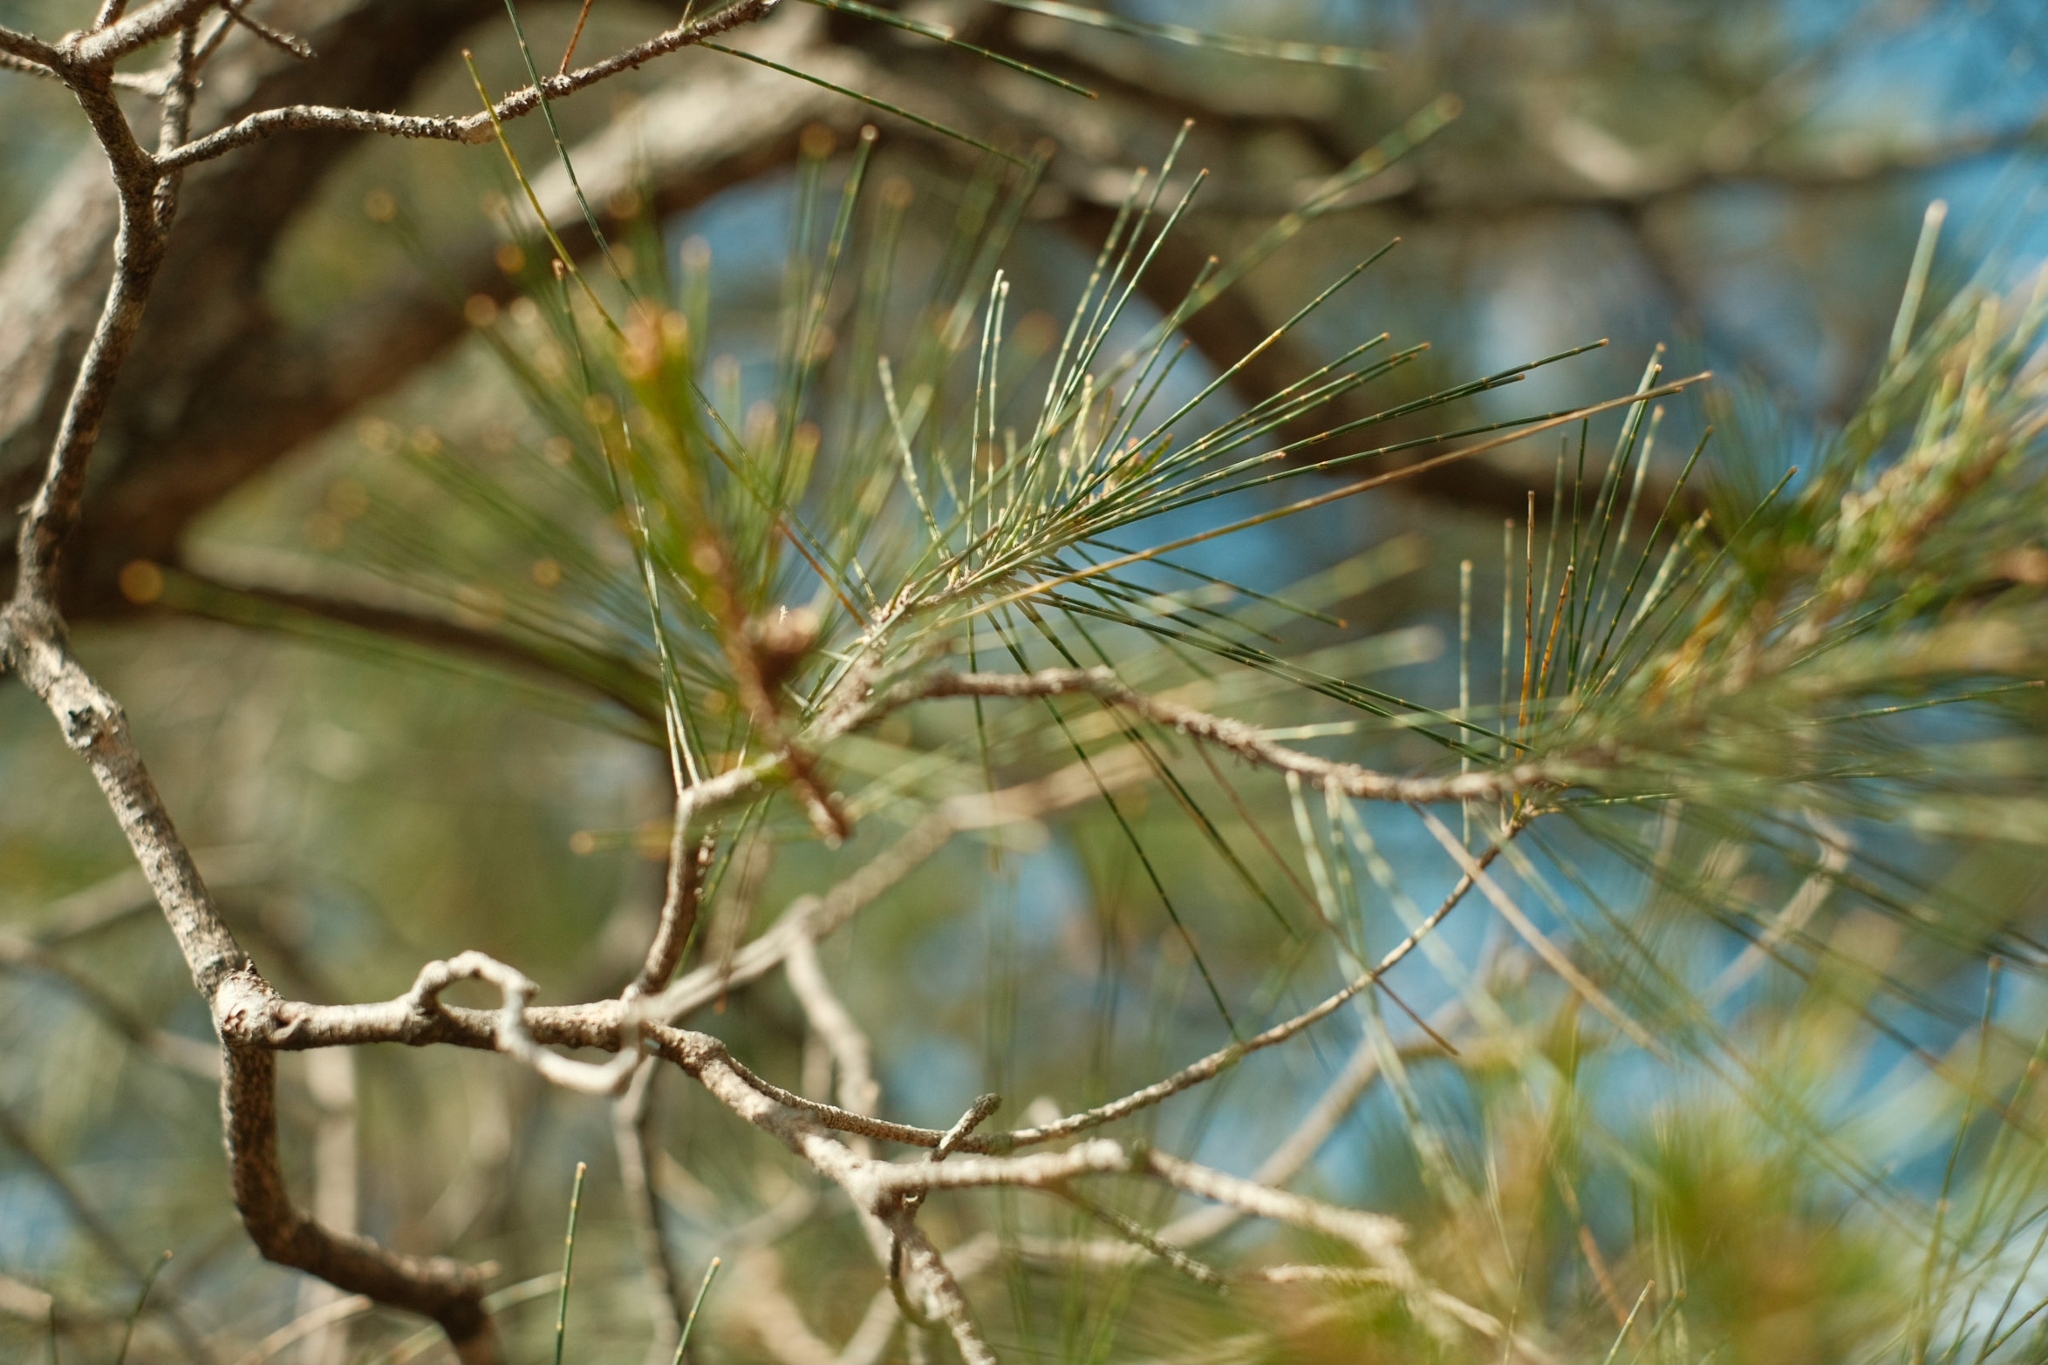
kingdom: Plantae
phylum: Tracheophyta
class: Magnoliopsida
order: Fagales
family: Casuarinaceae
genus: Allocasuarina
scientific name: Allocasuarina littoralis
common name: Black she-oak
